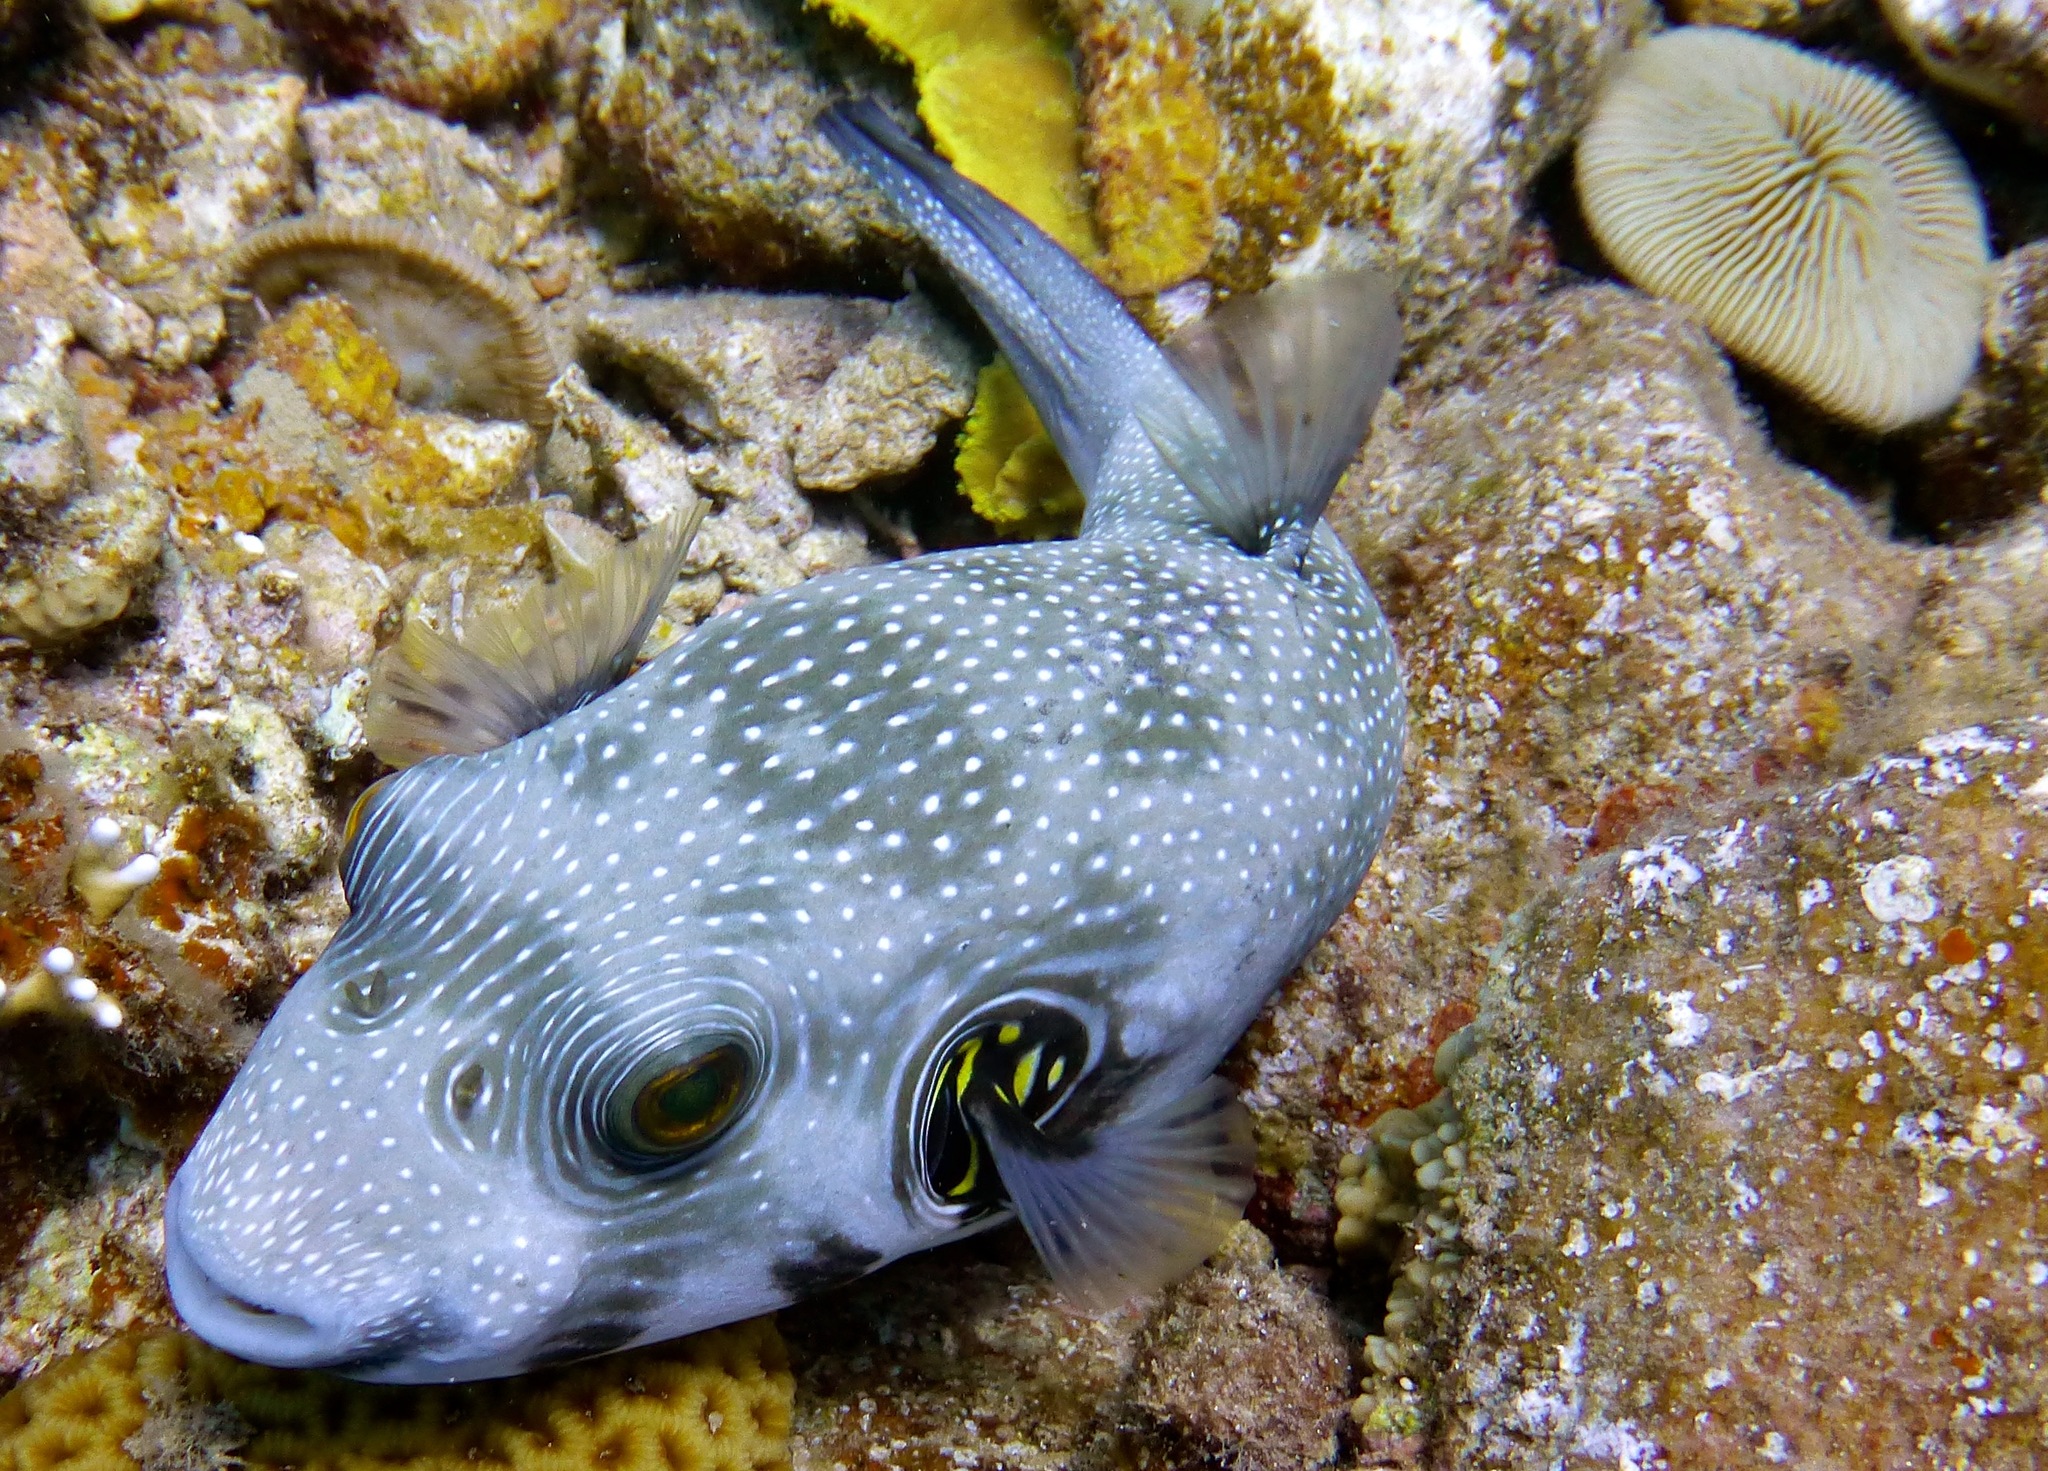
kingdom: Animalia
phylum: Chordata
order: Tetraodontiformes
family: Tetraodontidae
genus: Arothron
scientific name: Arothron hispidus
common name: Stripebelly puffer
